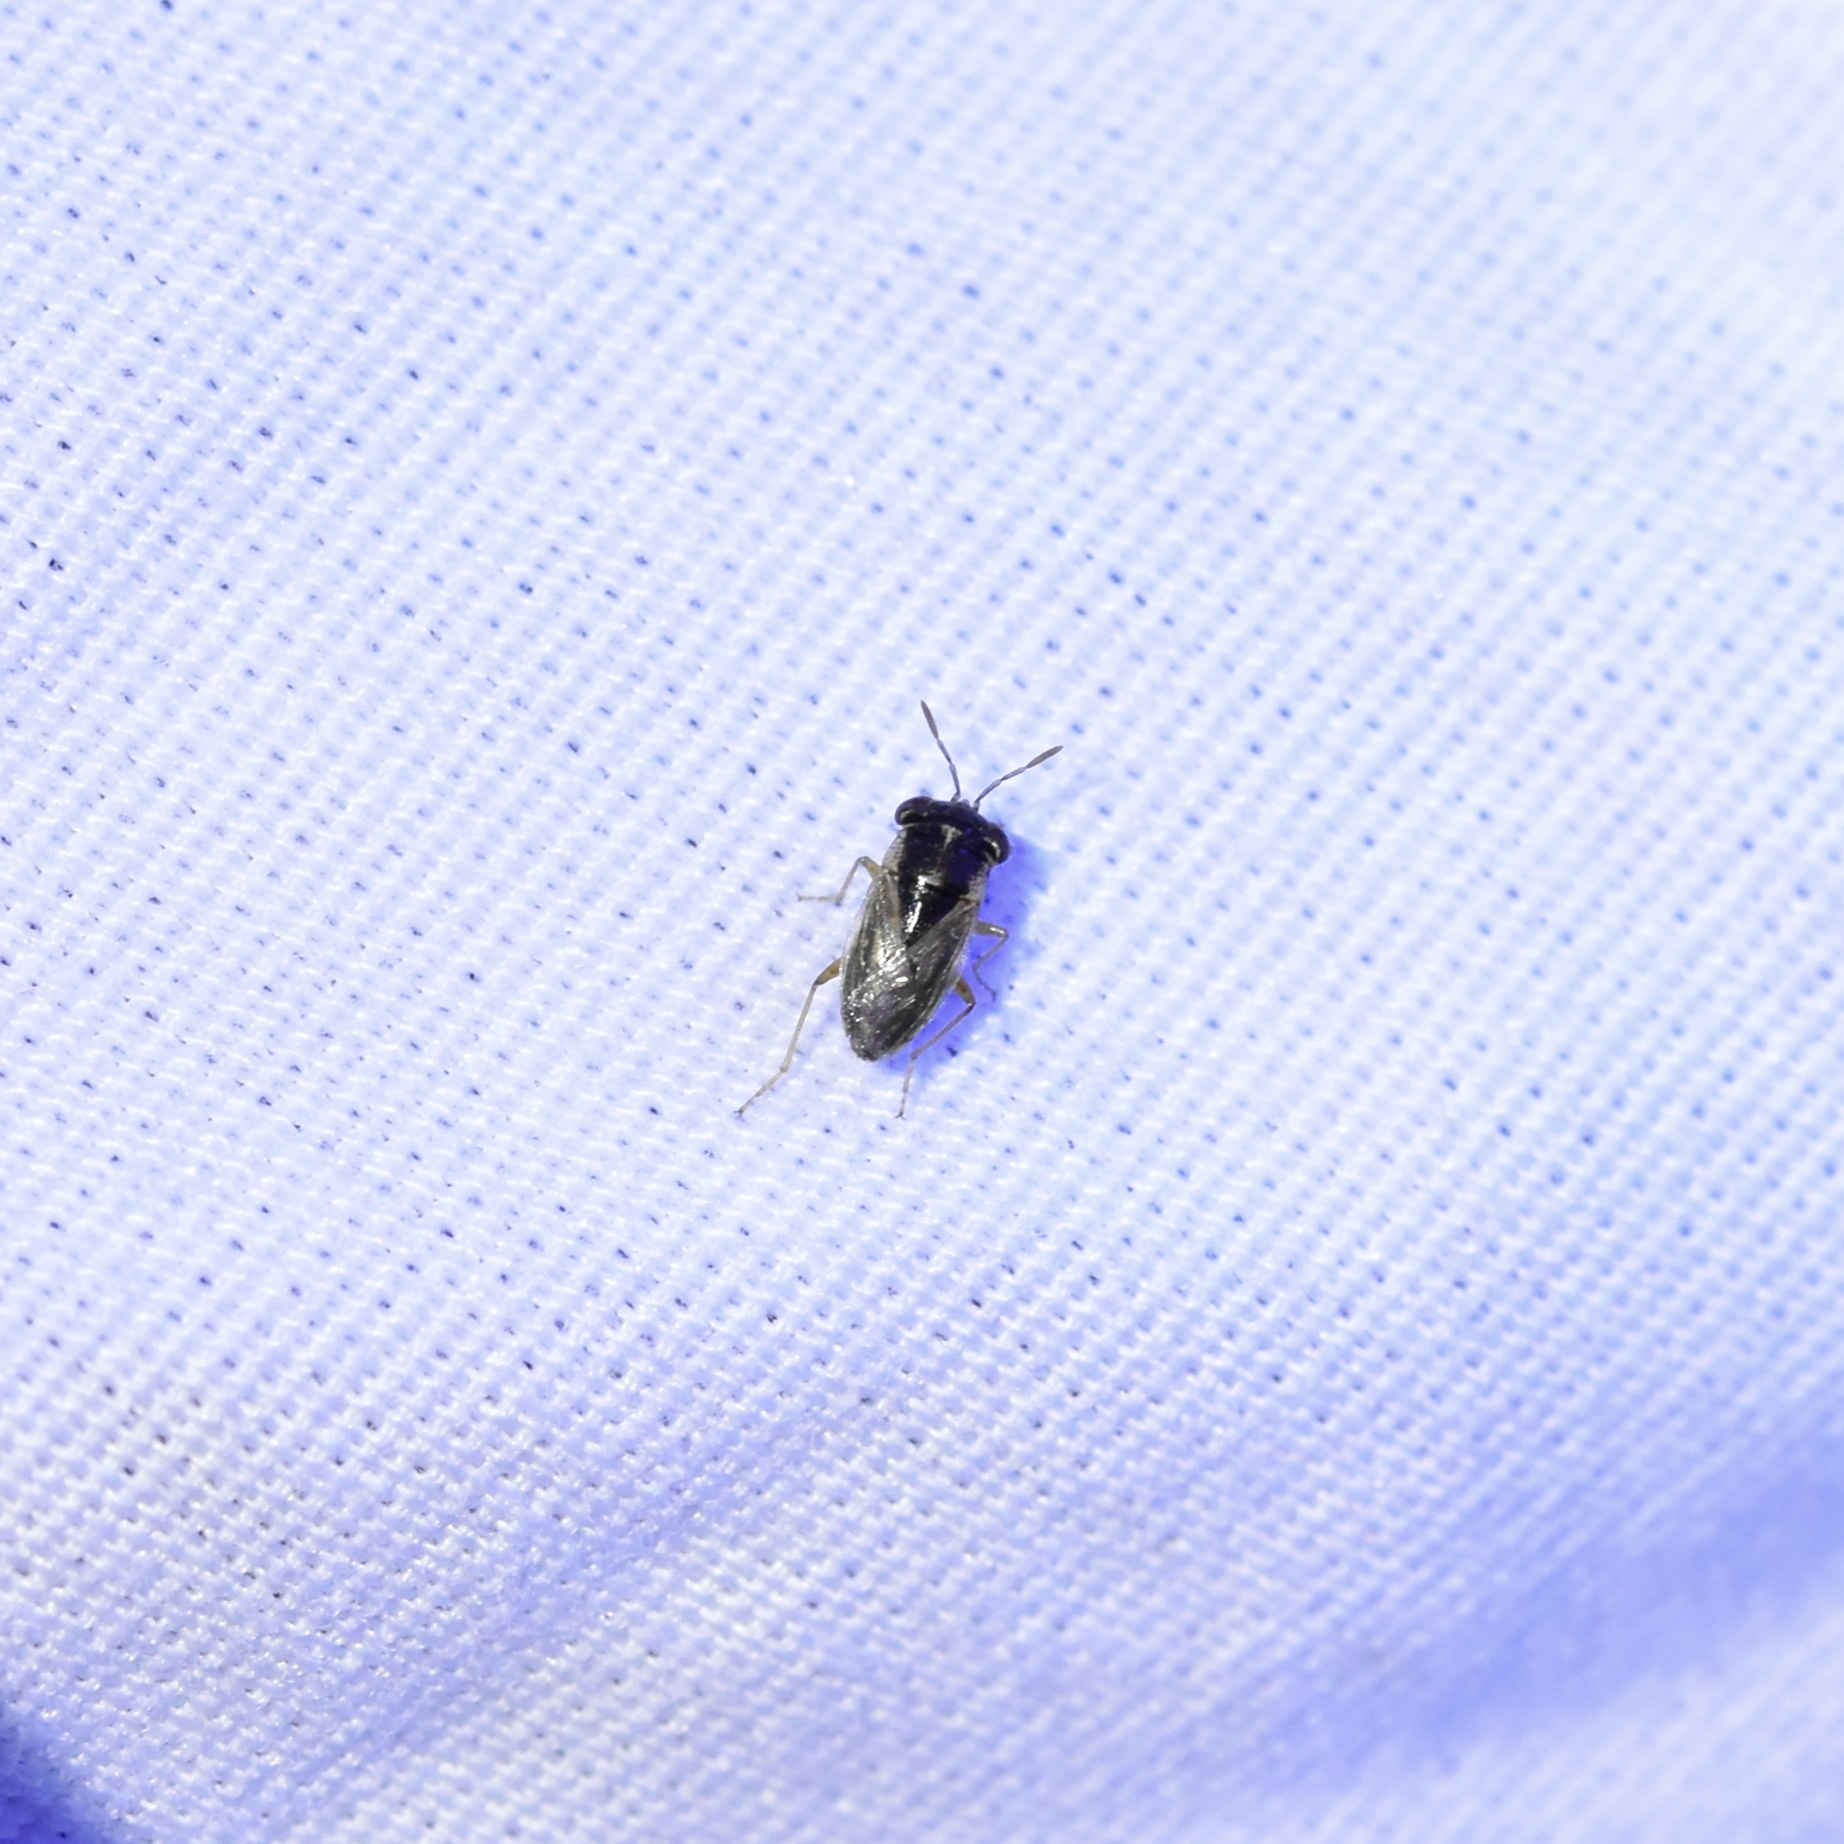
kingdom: Animalia
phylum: Arthropoda
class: Insecta
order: Hemiptera
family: Geocoridae
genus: Geocoris
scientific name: Geocoris uliginosus
